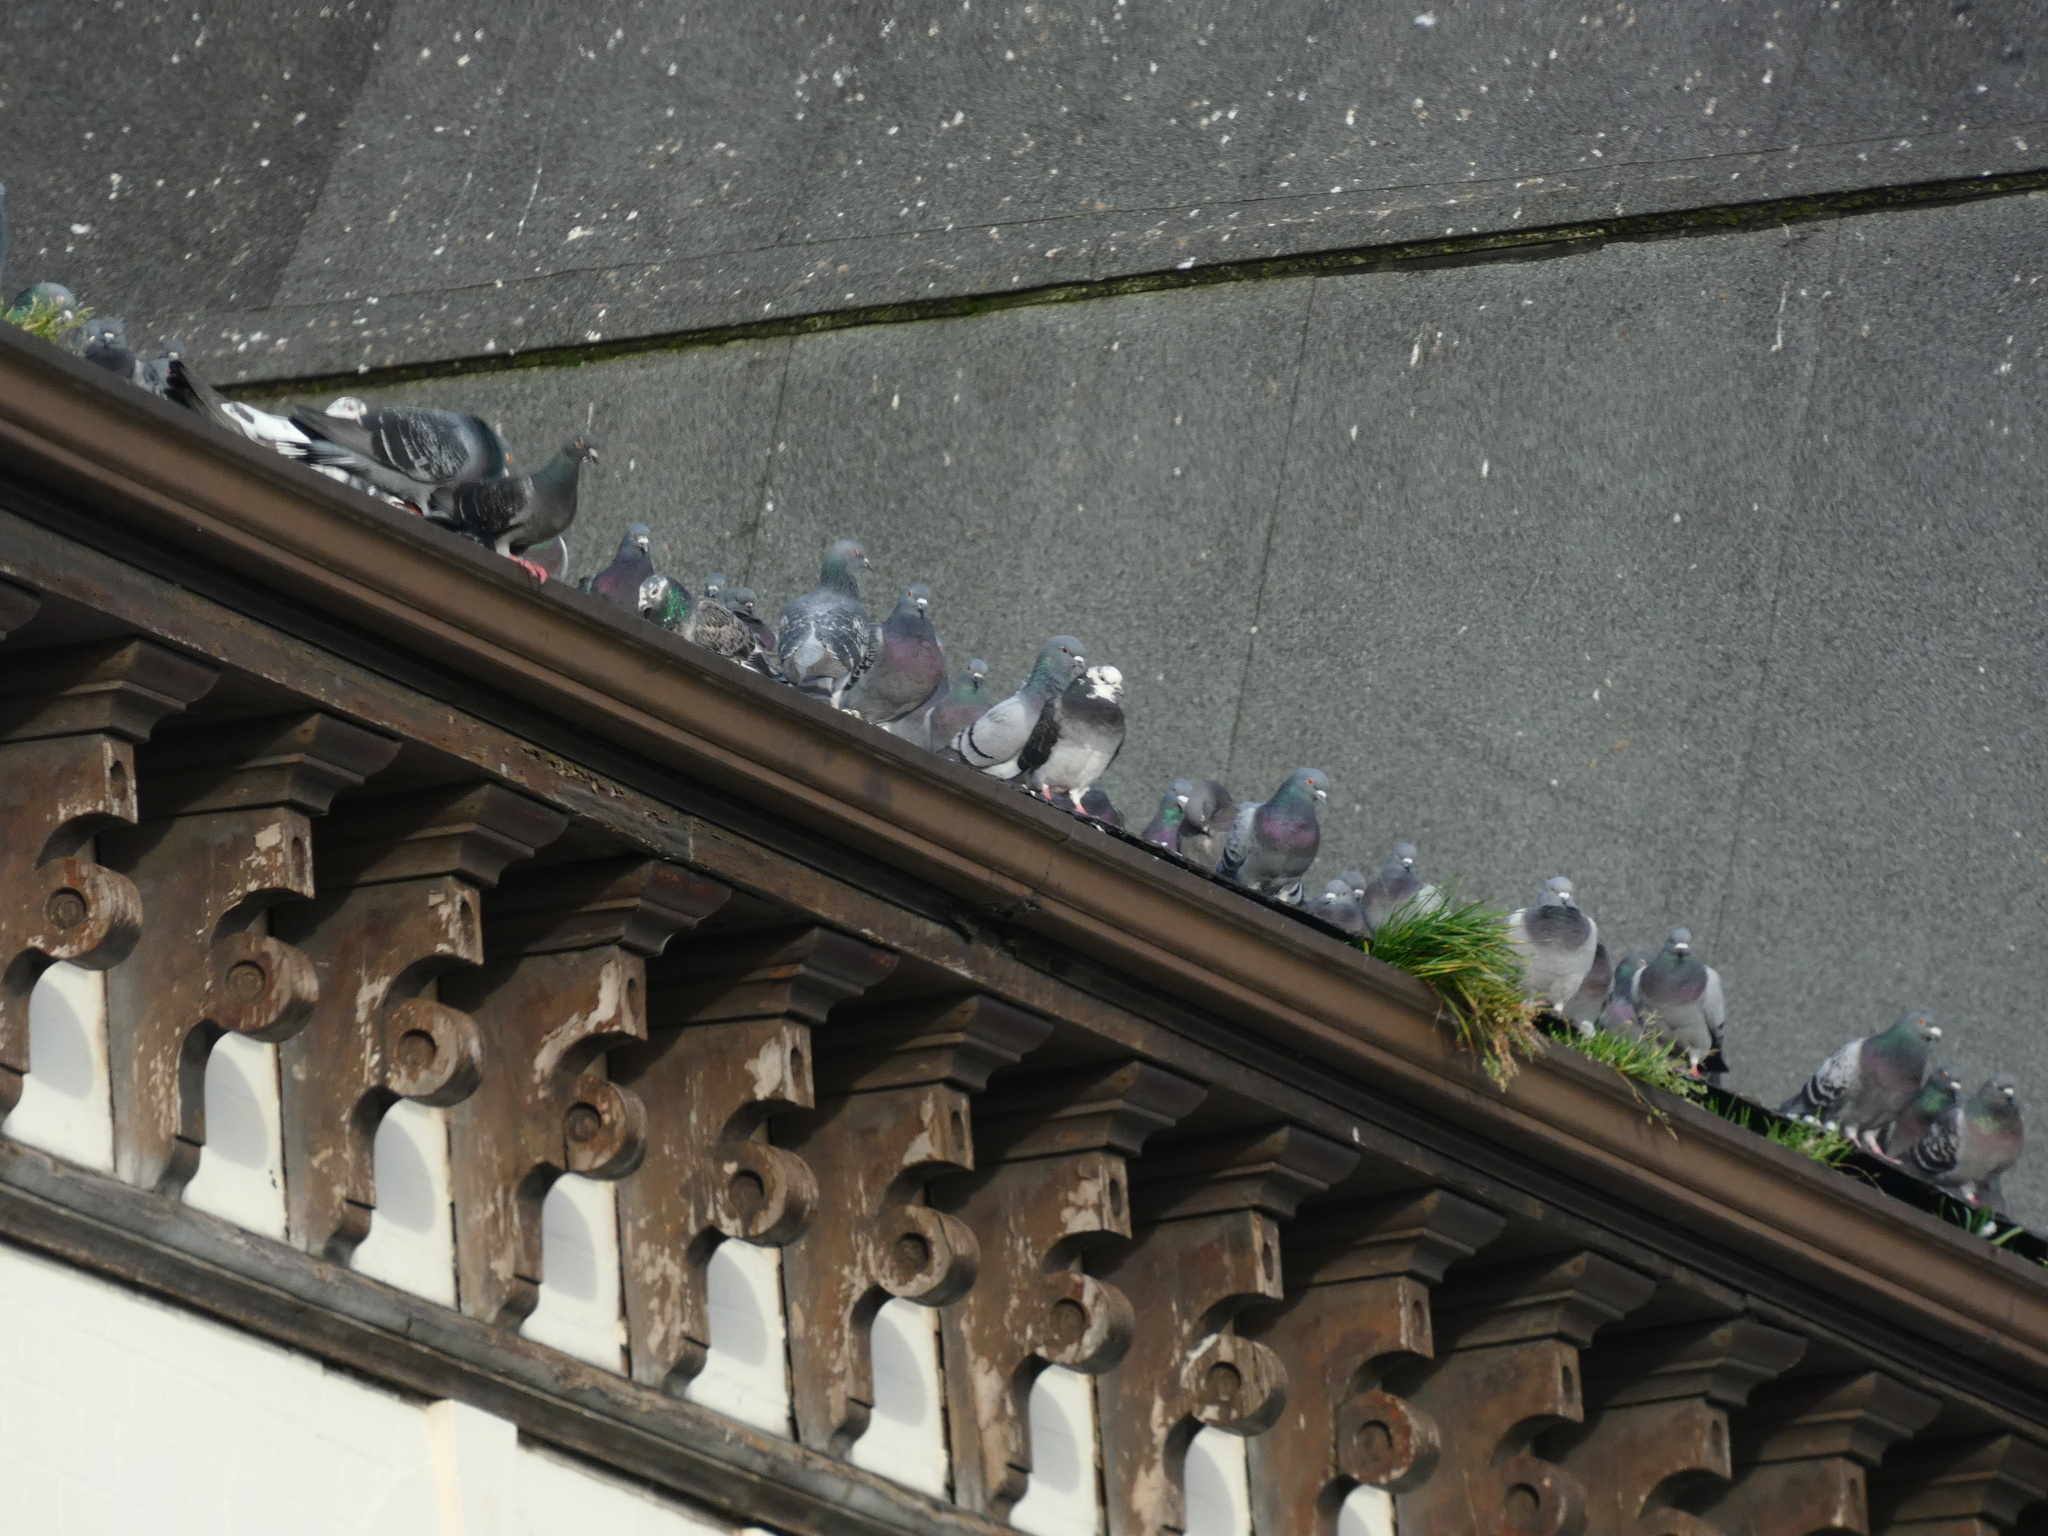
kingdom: Animalia
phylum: Chordata
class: Aves
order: Columbiformes
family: Columbidae
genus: Columba
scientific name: Columba livia
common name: Rock pigeon
